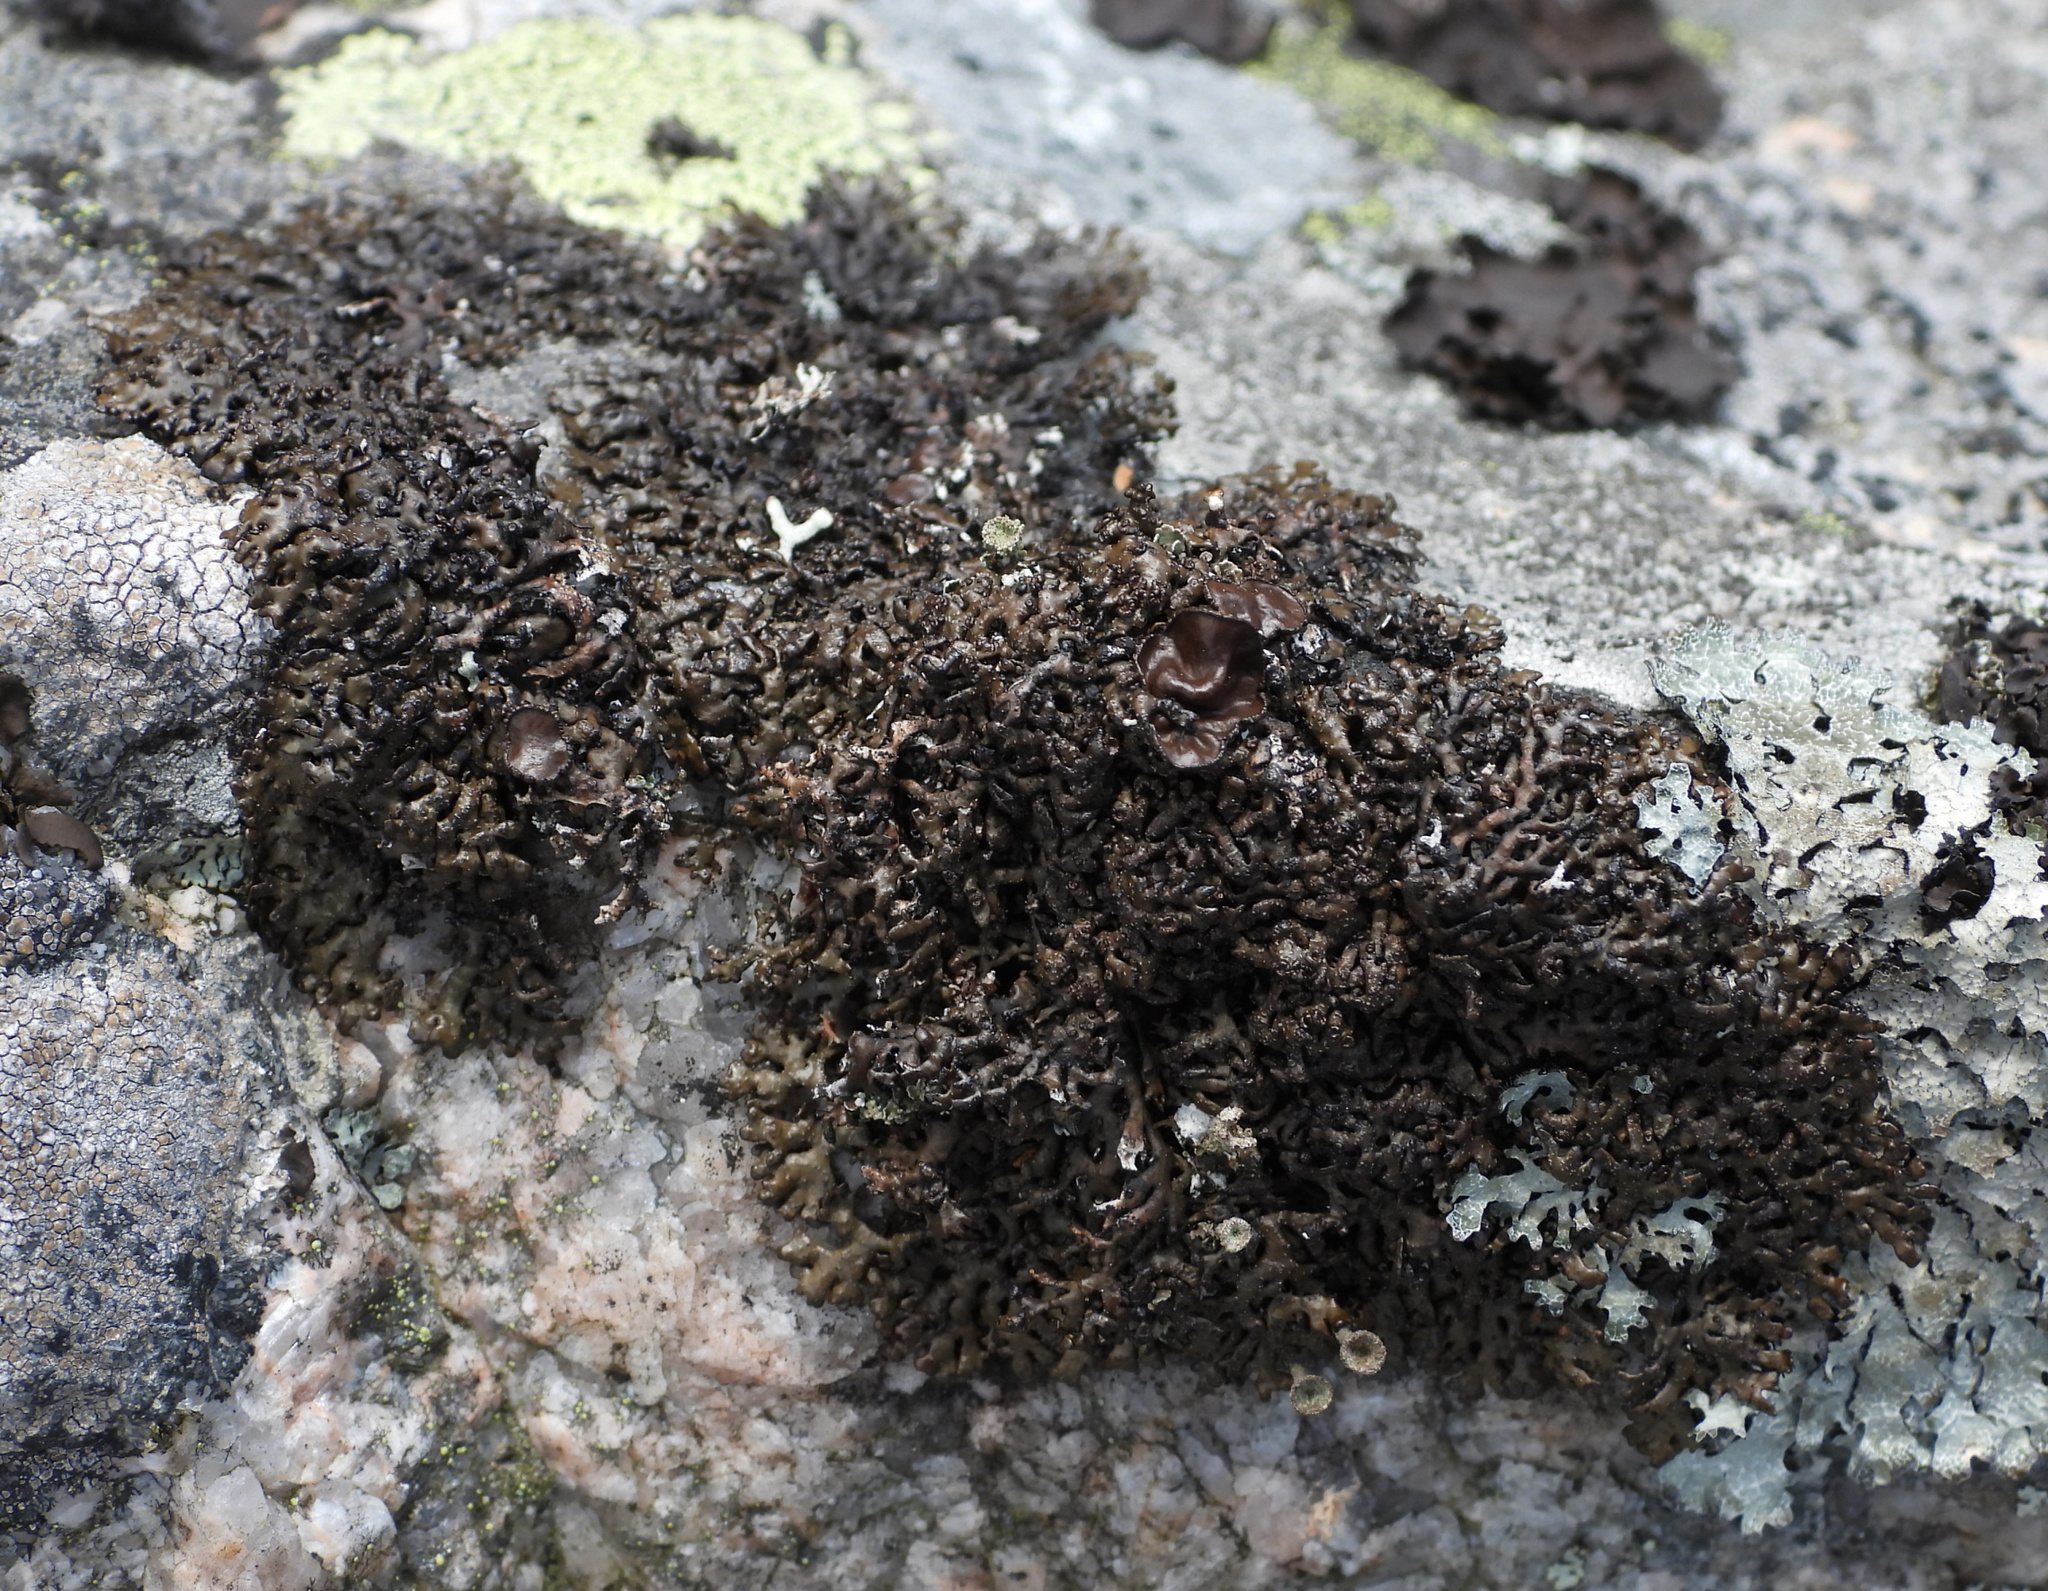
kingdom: Fungi
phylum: Ascomycota
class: Lecanoromycetes
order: Lecanorales
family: Parmeliaceae
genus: Melanelia
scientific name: Melanelia stygia
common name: Alpine camouflage lichen
